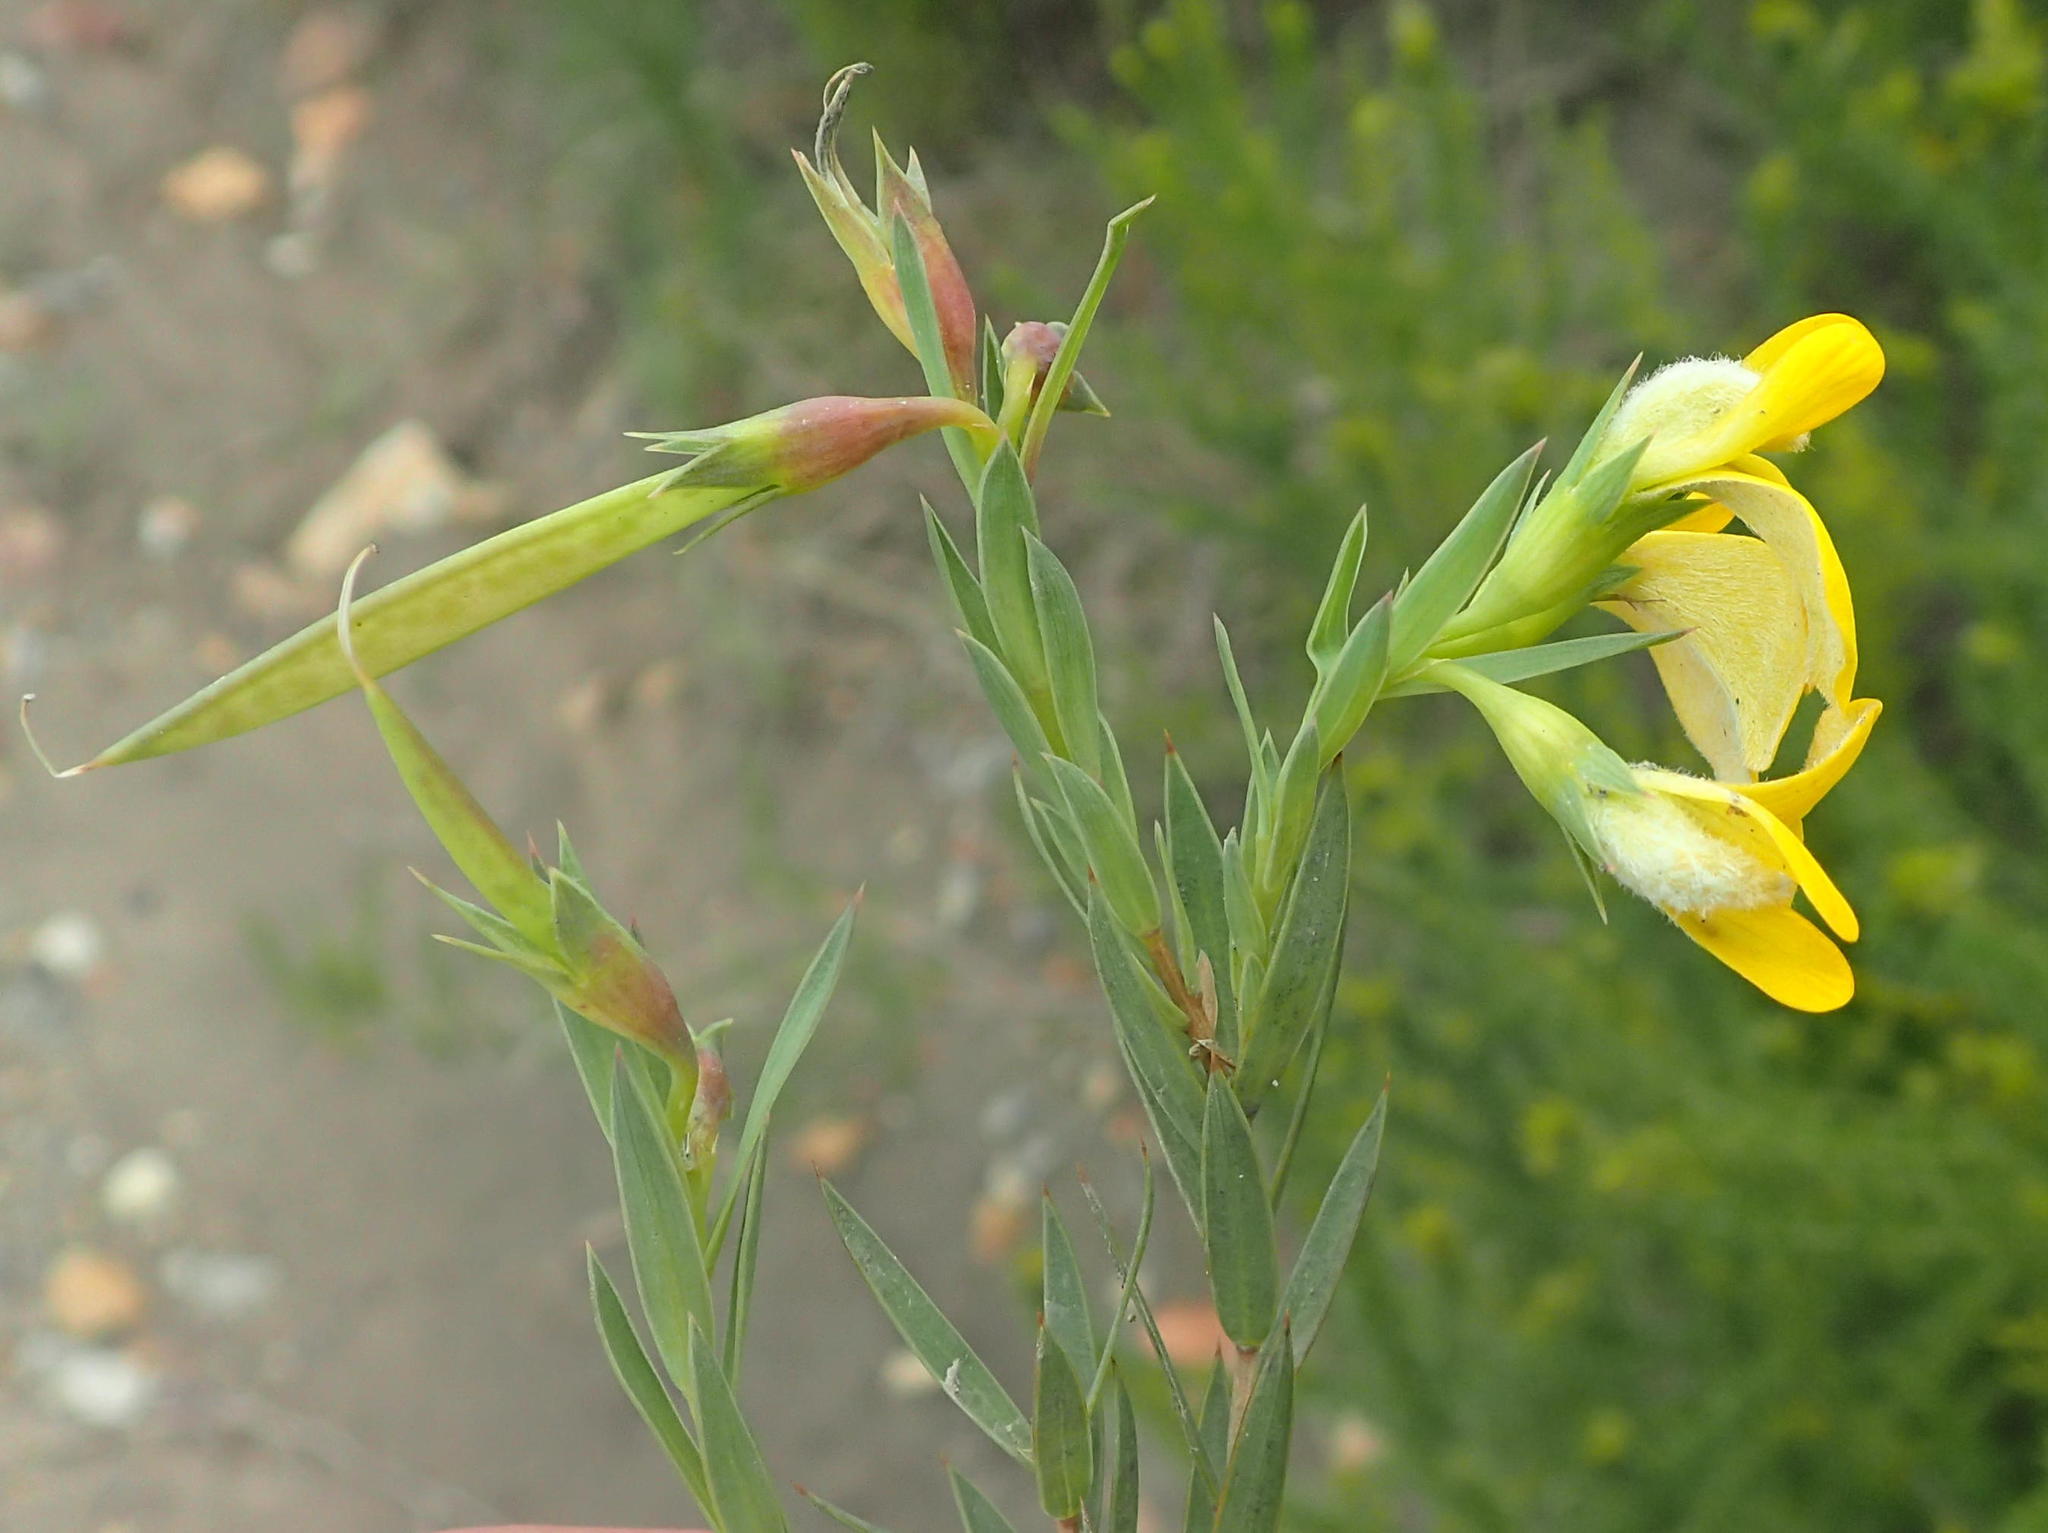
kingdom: Plantae
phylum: Tracheophyta
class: Magnoliopsida
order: Fabales
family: Fabaceae
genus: Aspalathus
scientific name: Aspalathus angustifolia
